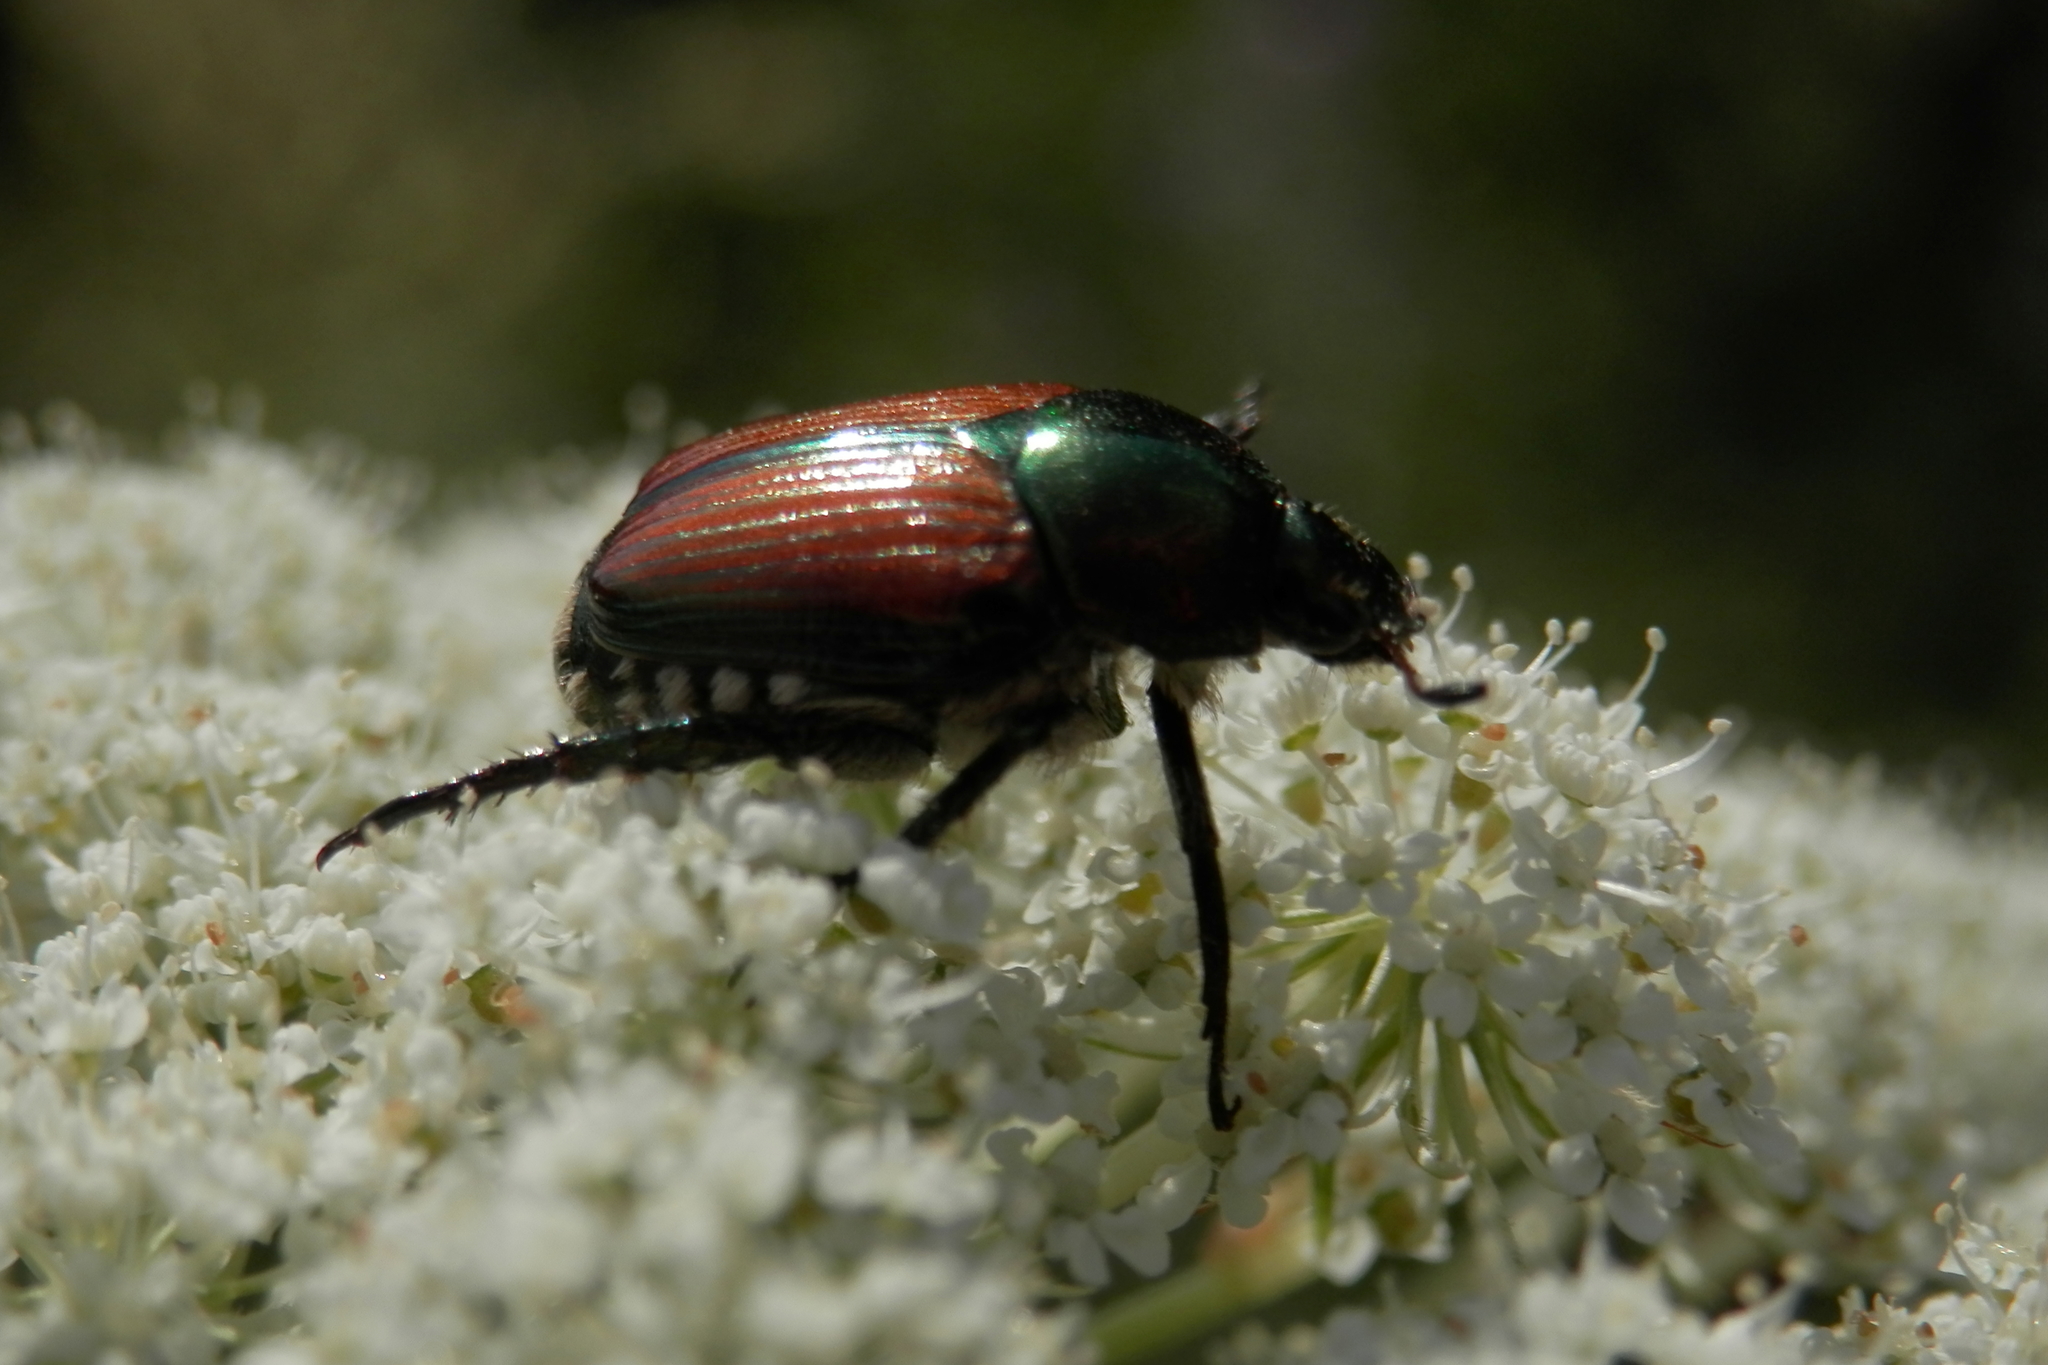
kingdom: Animalia
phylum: Arthropoda
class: Insecta
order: Coleoptera
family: Scarabaeidae
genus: Popillia
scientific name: Popillia japonica
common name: Japanese beetle
